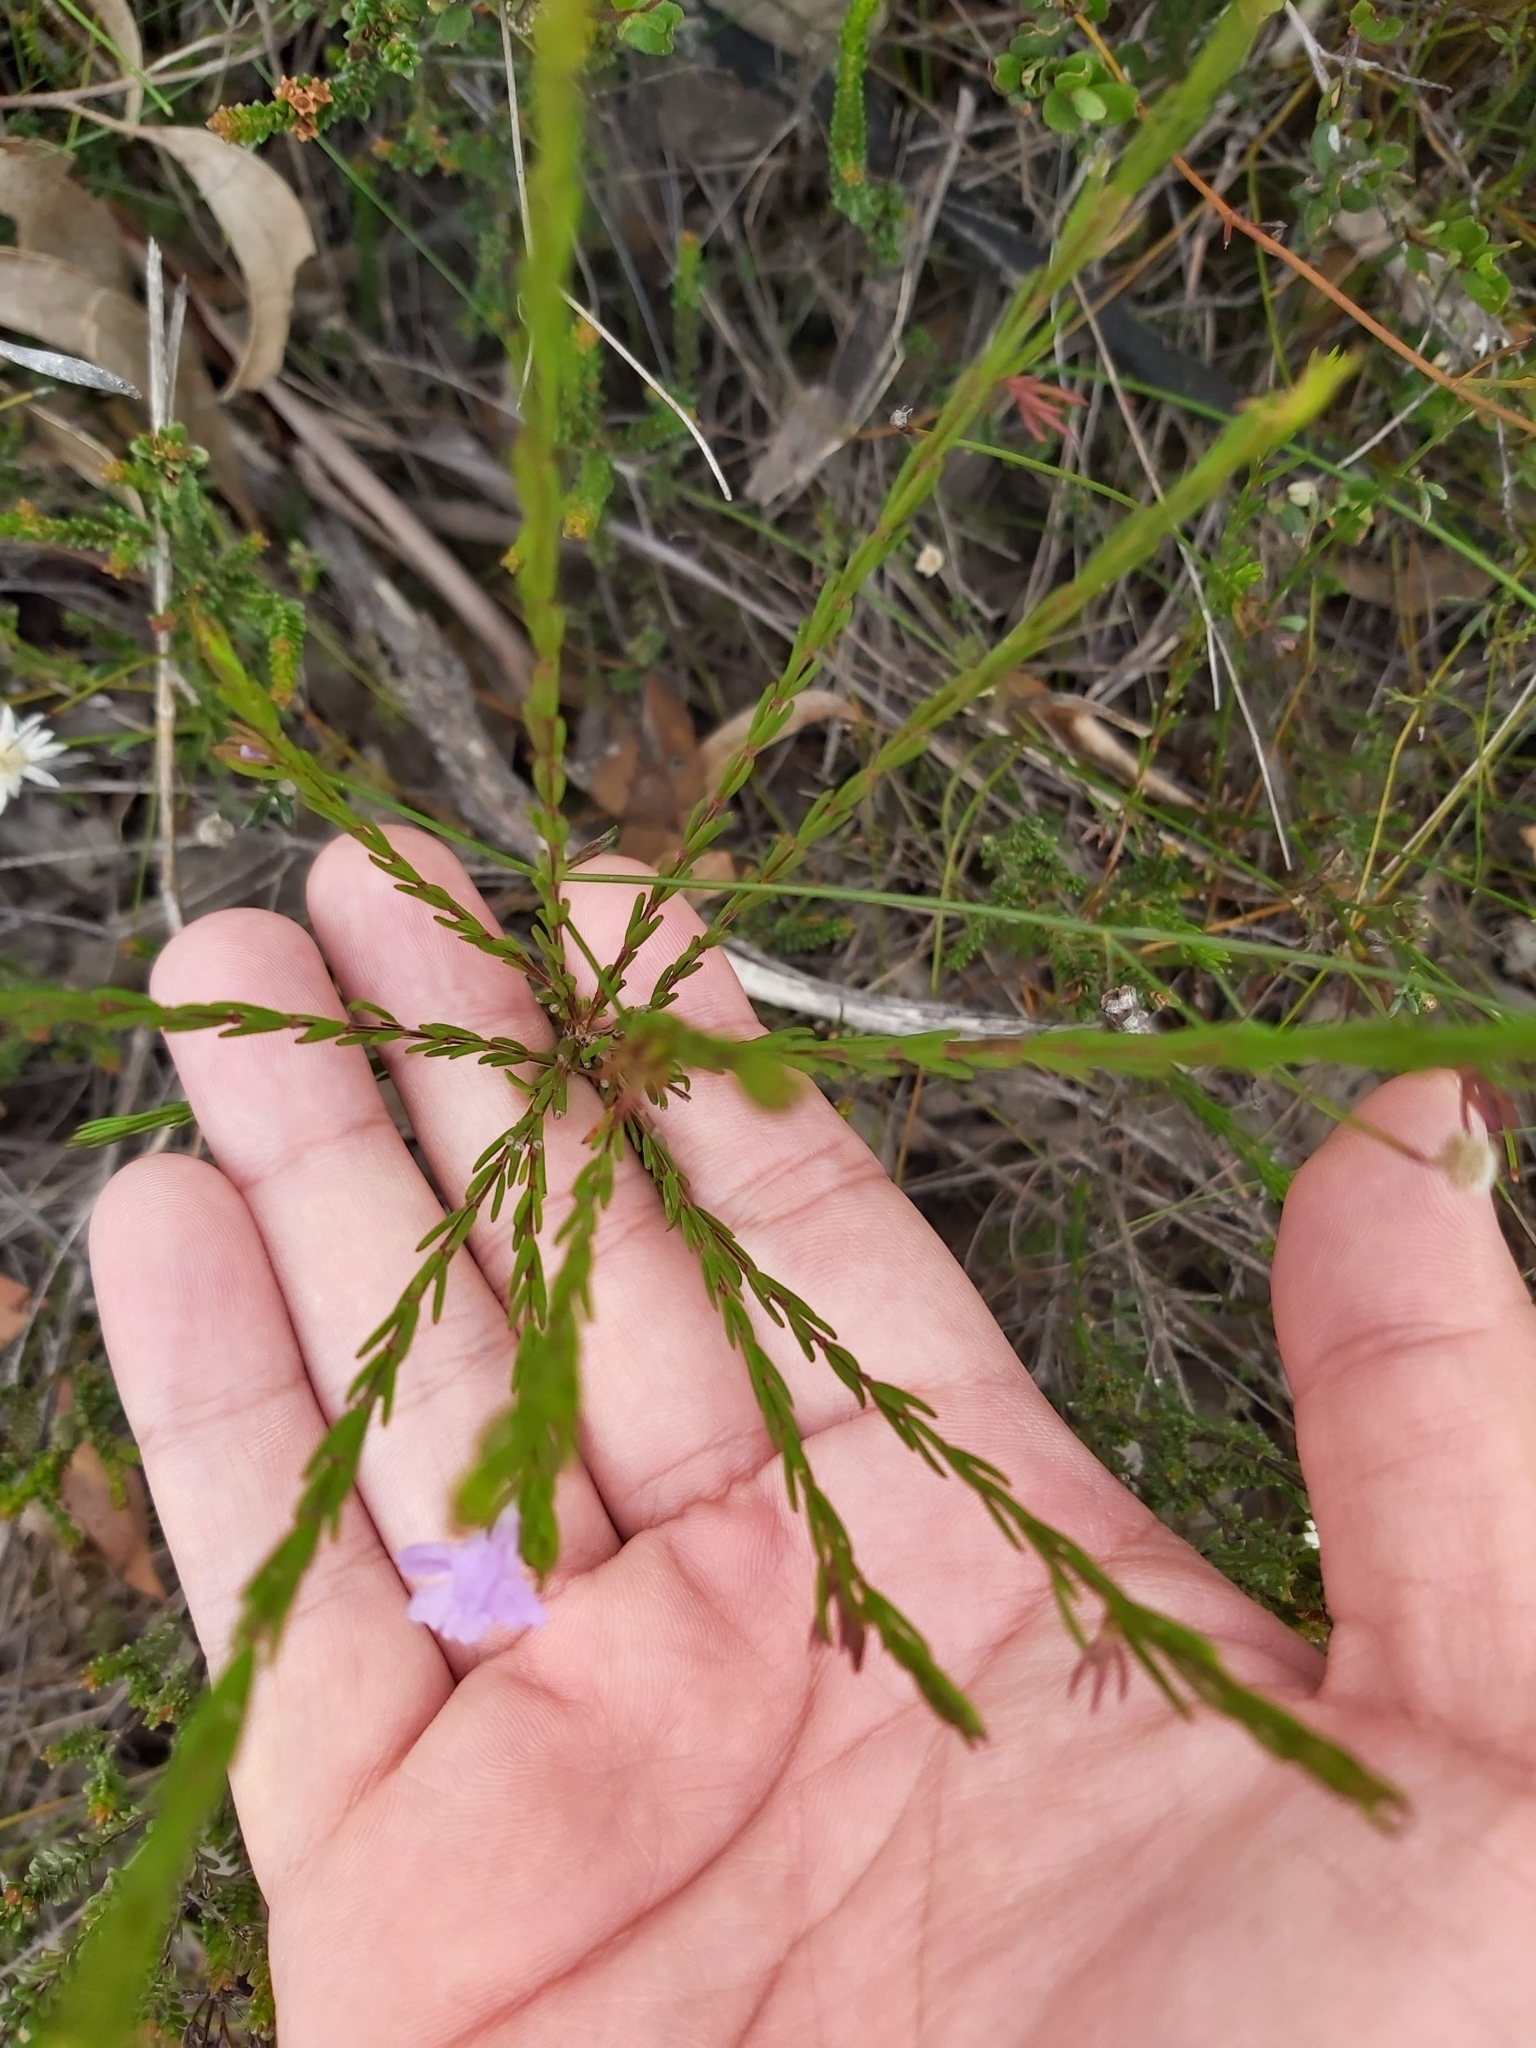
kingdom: Plantae
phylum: Tracheophyta
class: Magnoliopsida
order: Lamiales
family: Lamiaceae
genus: Hemigenia
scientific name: Hemigenia purpurea
